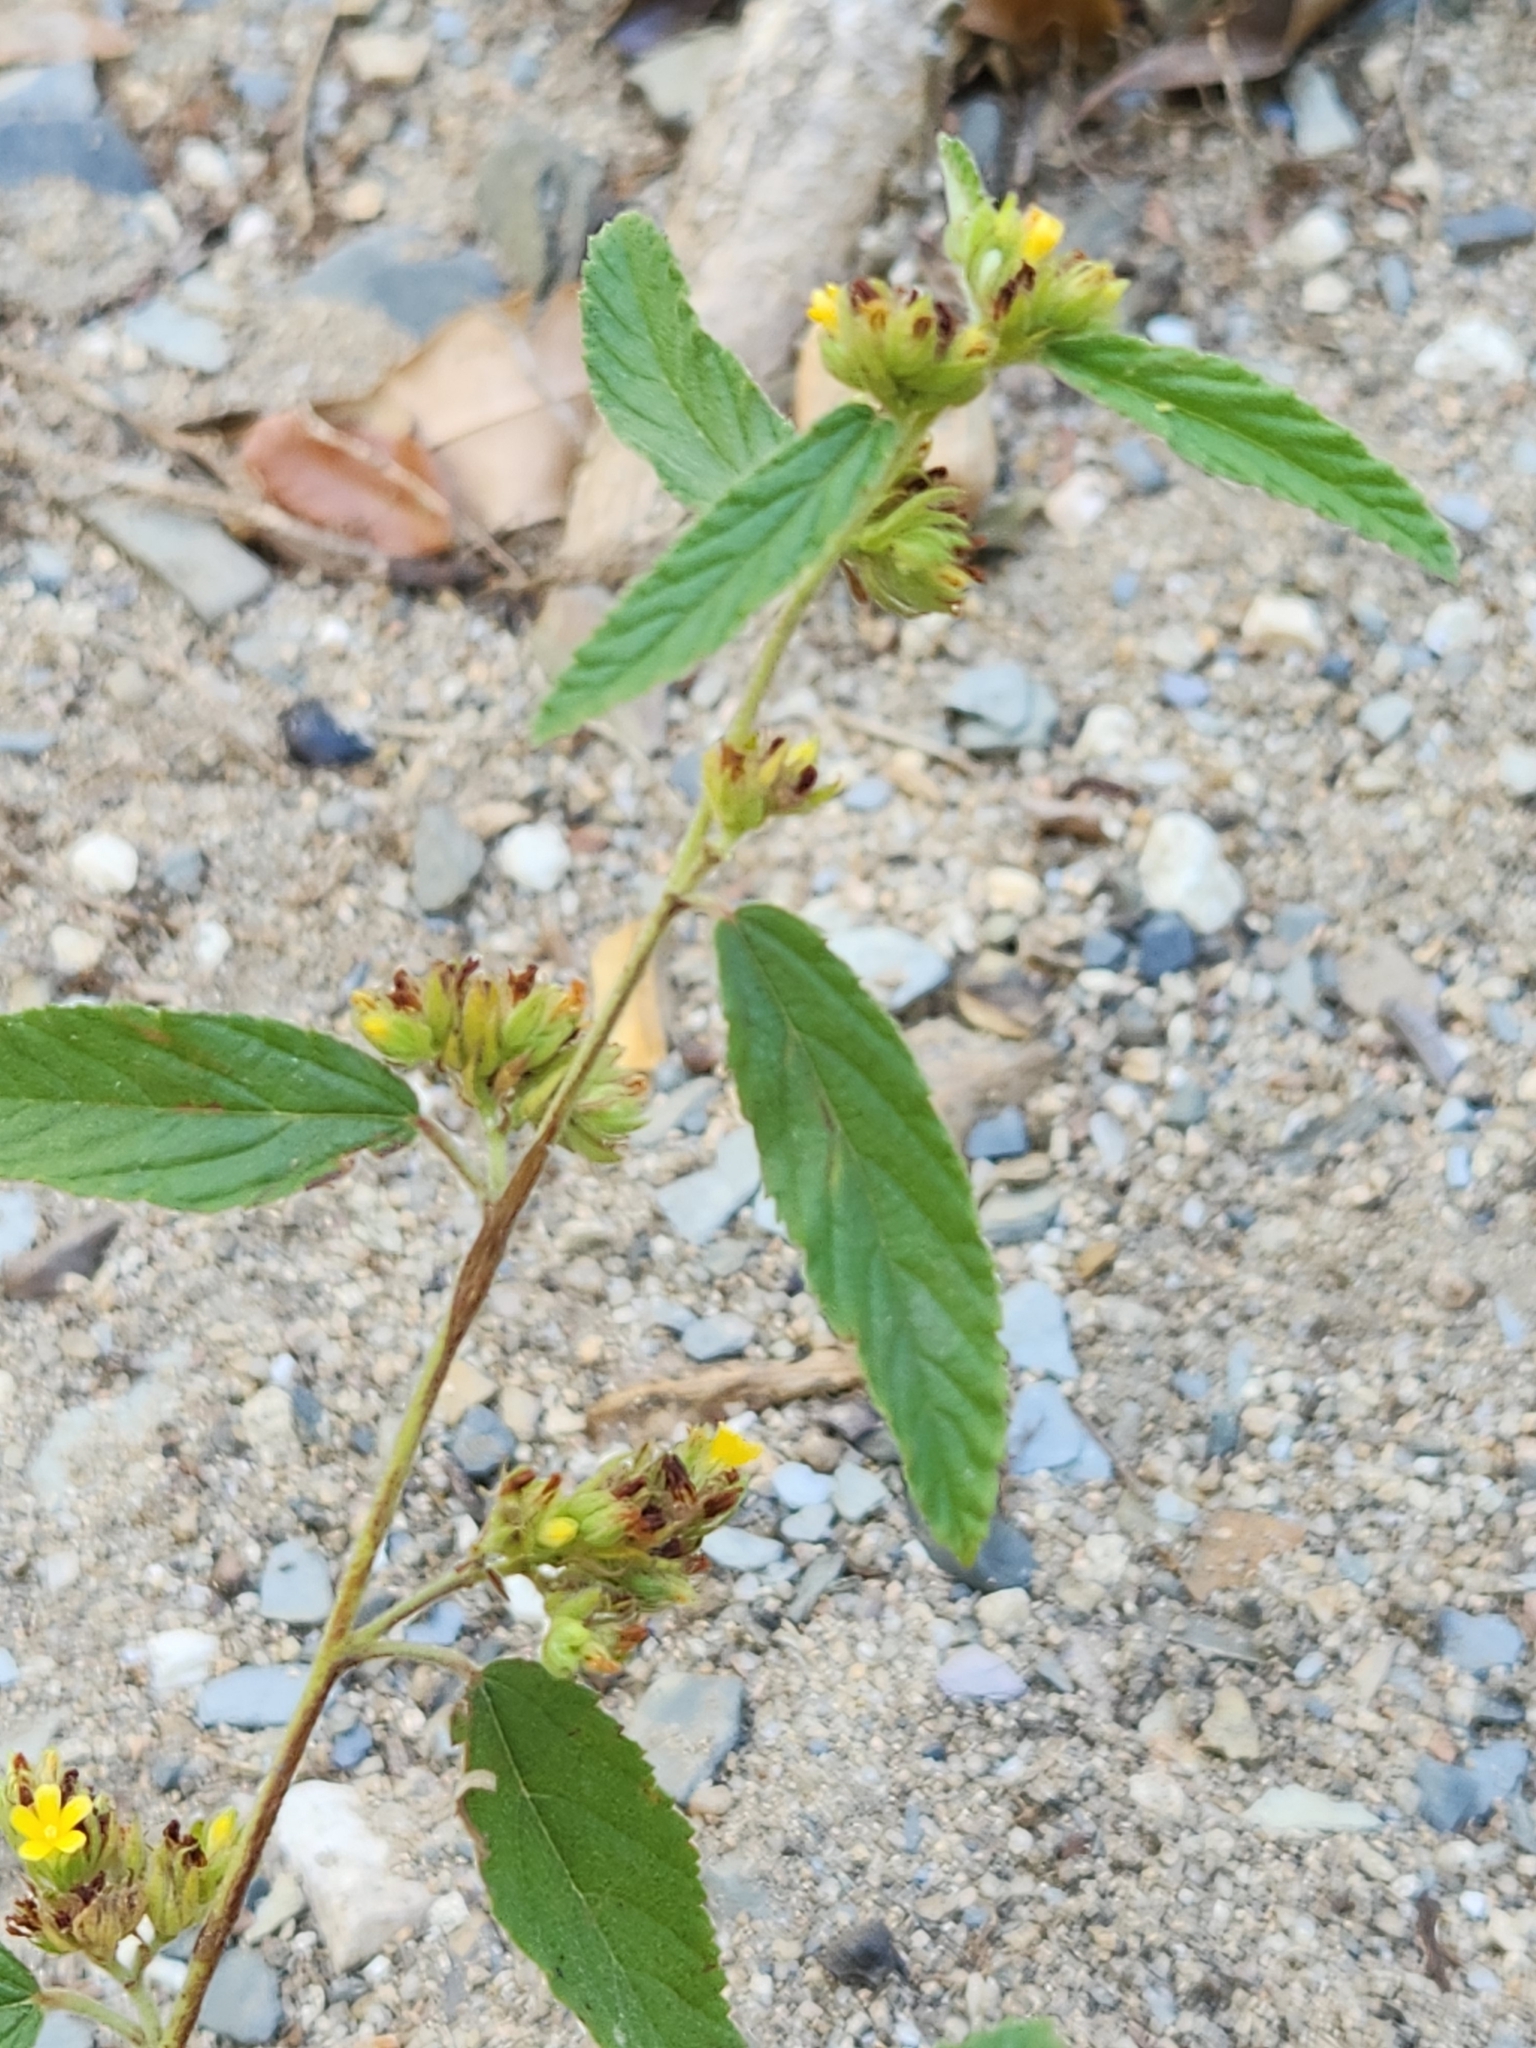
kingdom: Plantae
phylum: Tracheophyta
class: Magnoliopsida
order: Malvales
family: Malvaceae
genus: Waltheria
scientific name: Waltheria indica
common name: Leather-coat
